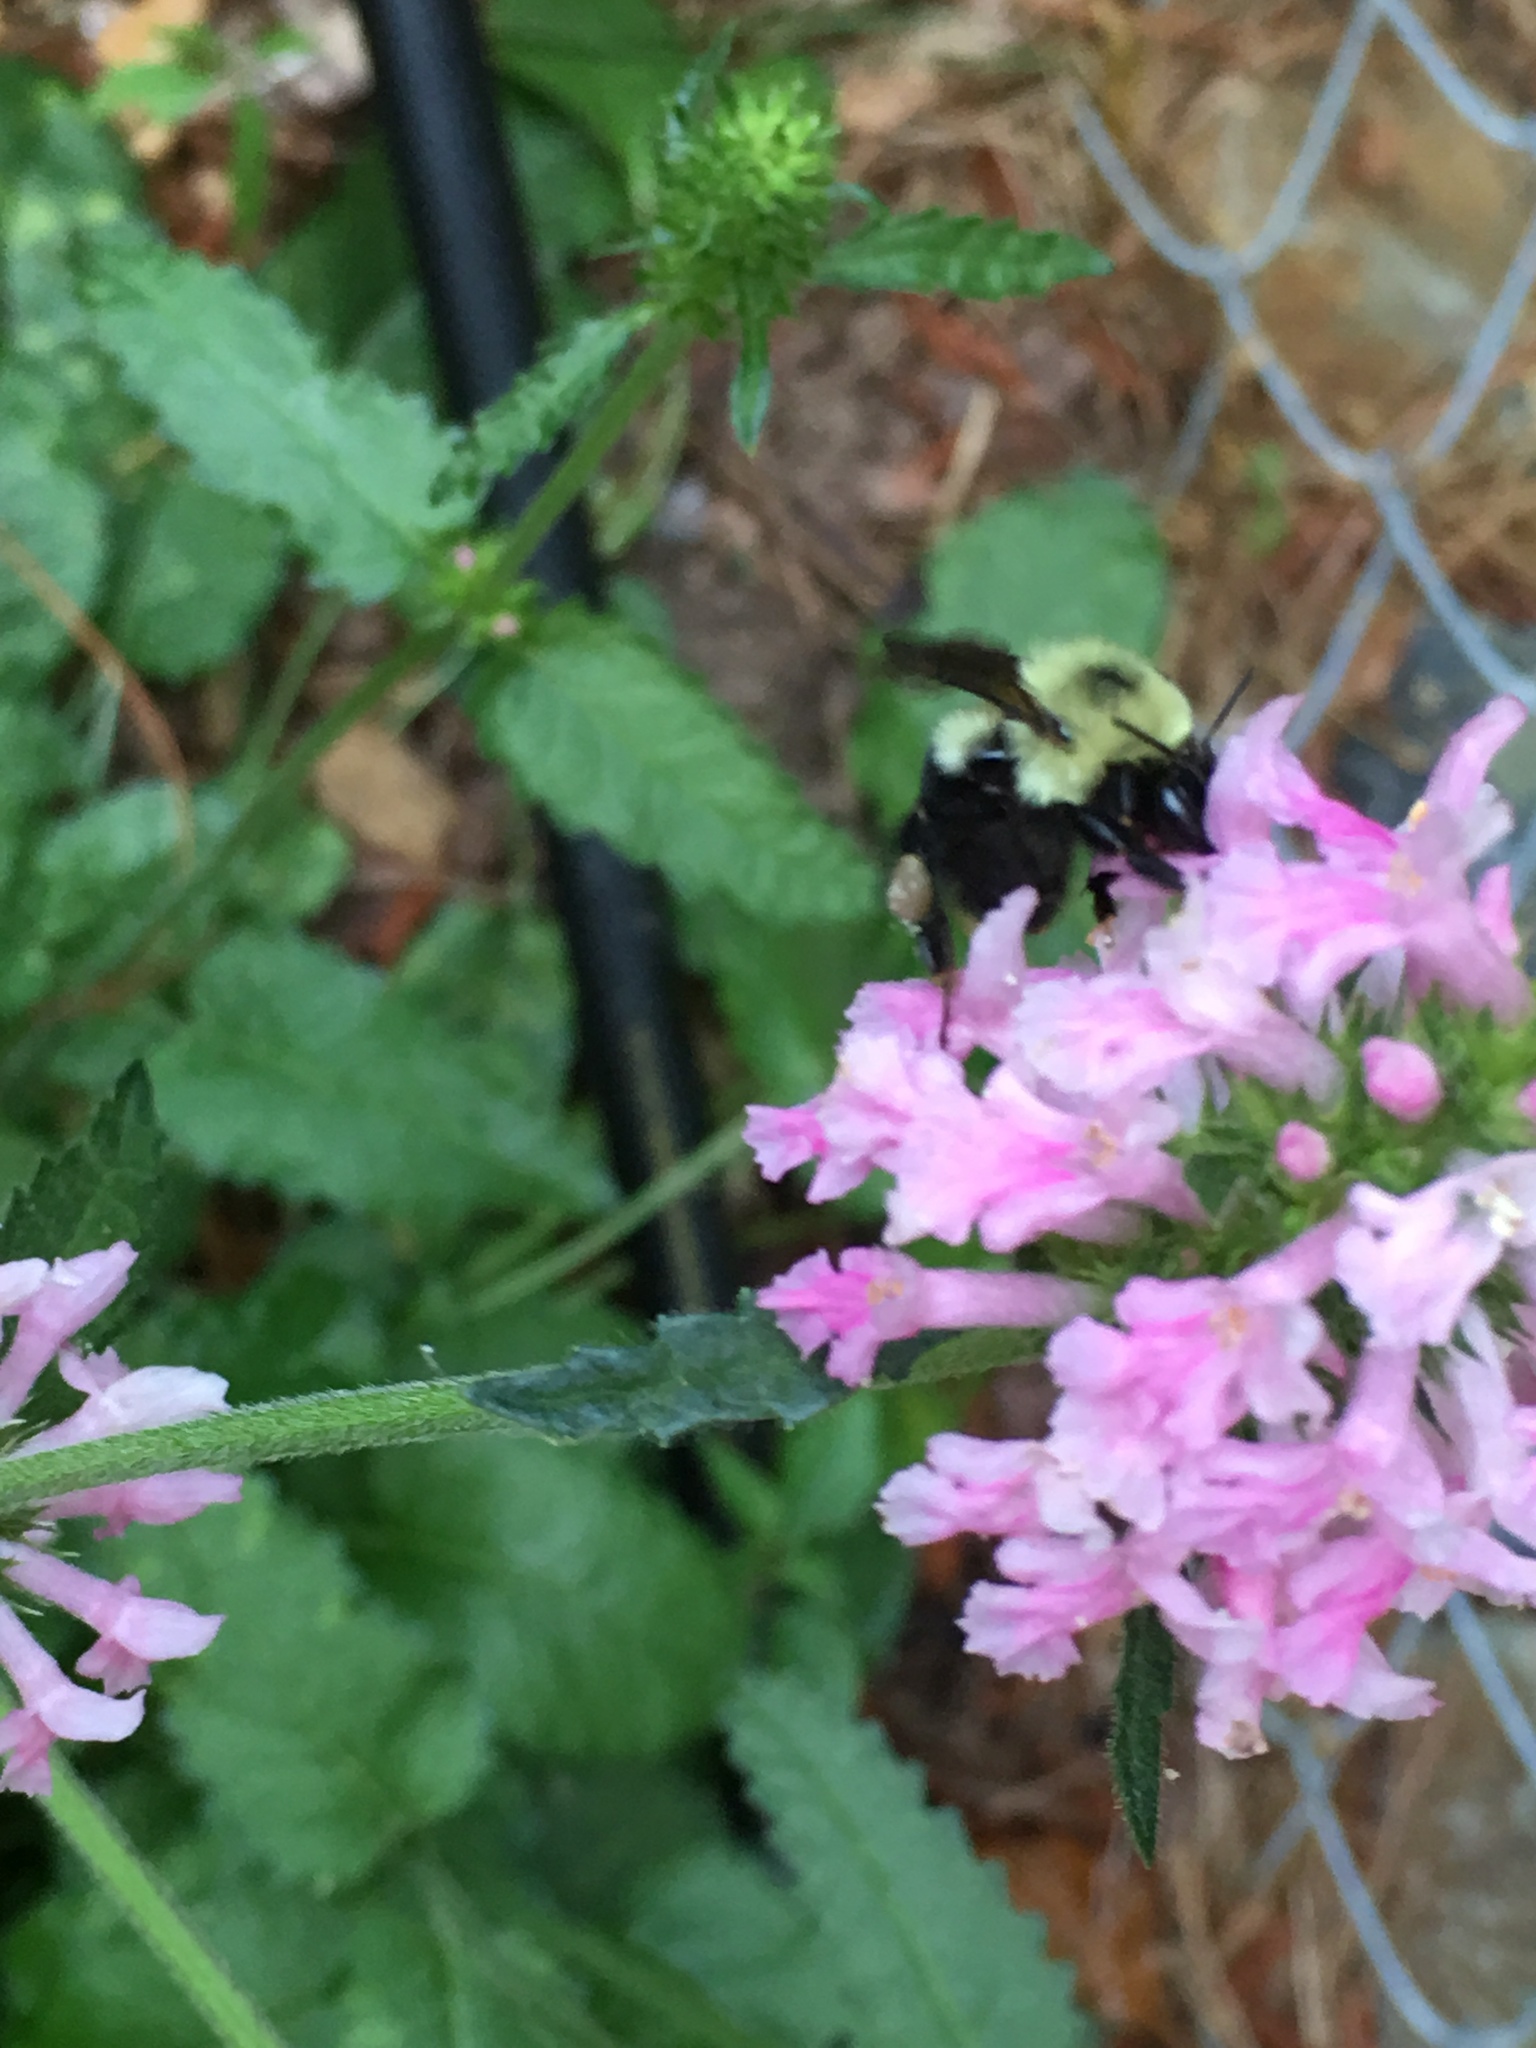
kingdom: Animalia
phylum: Arthropoda
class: Insecta
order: Hymenoptera
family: Apidae
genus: Bombus
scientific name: Bombus bimaculatus
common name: Two-spotted bumble bee
